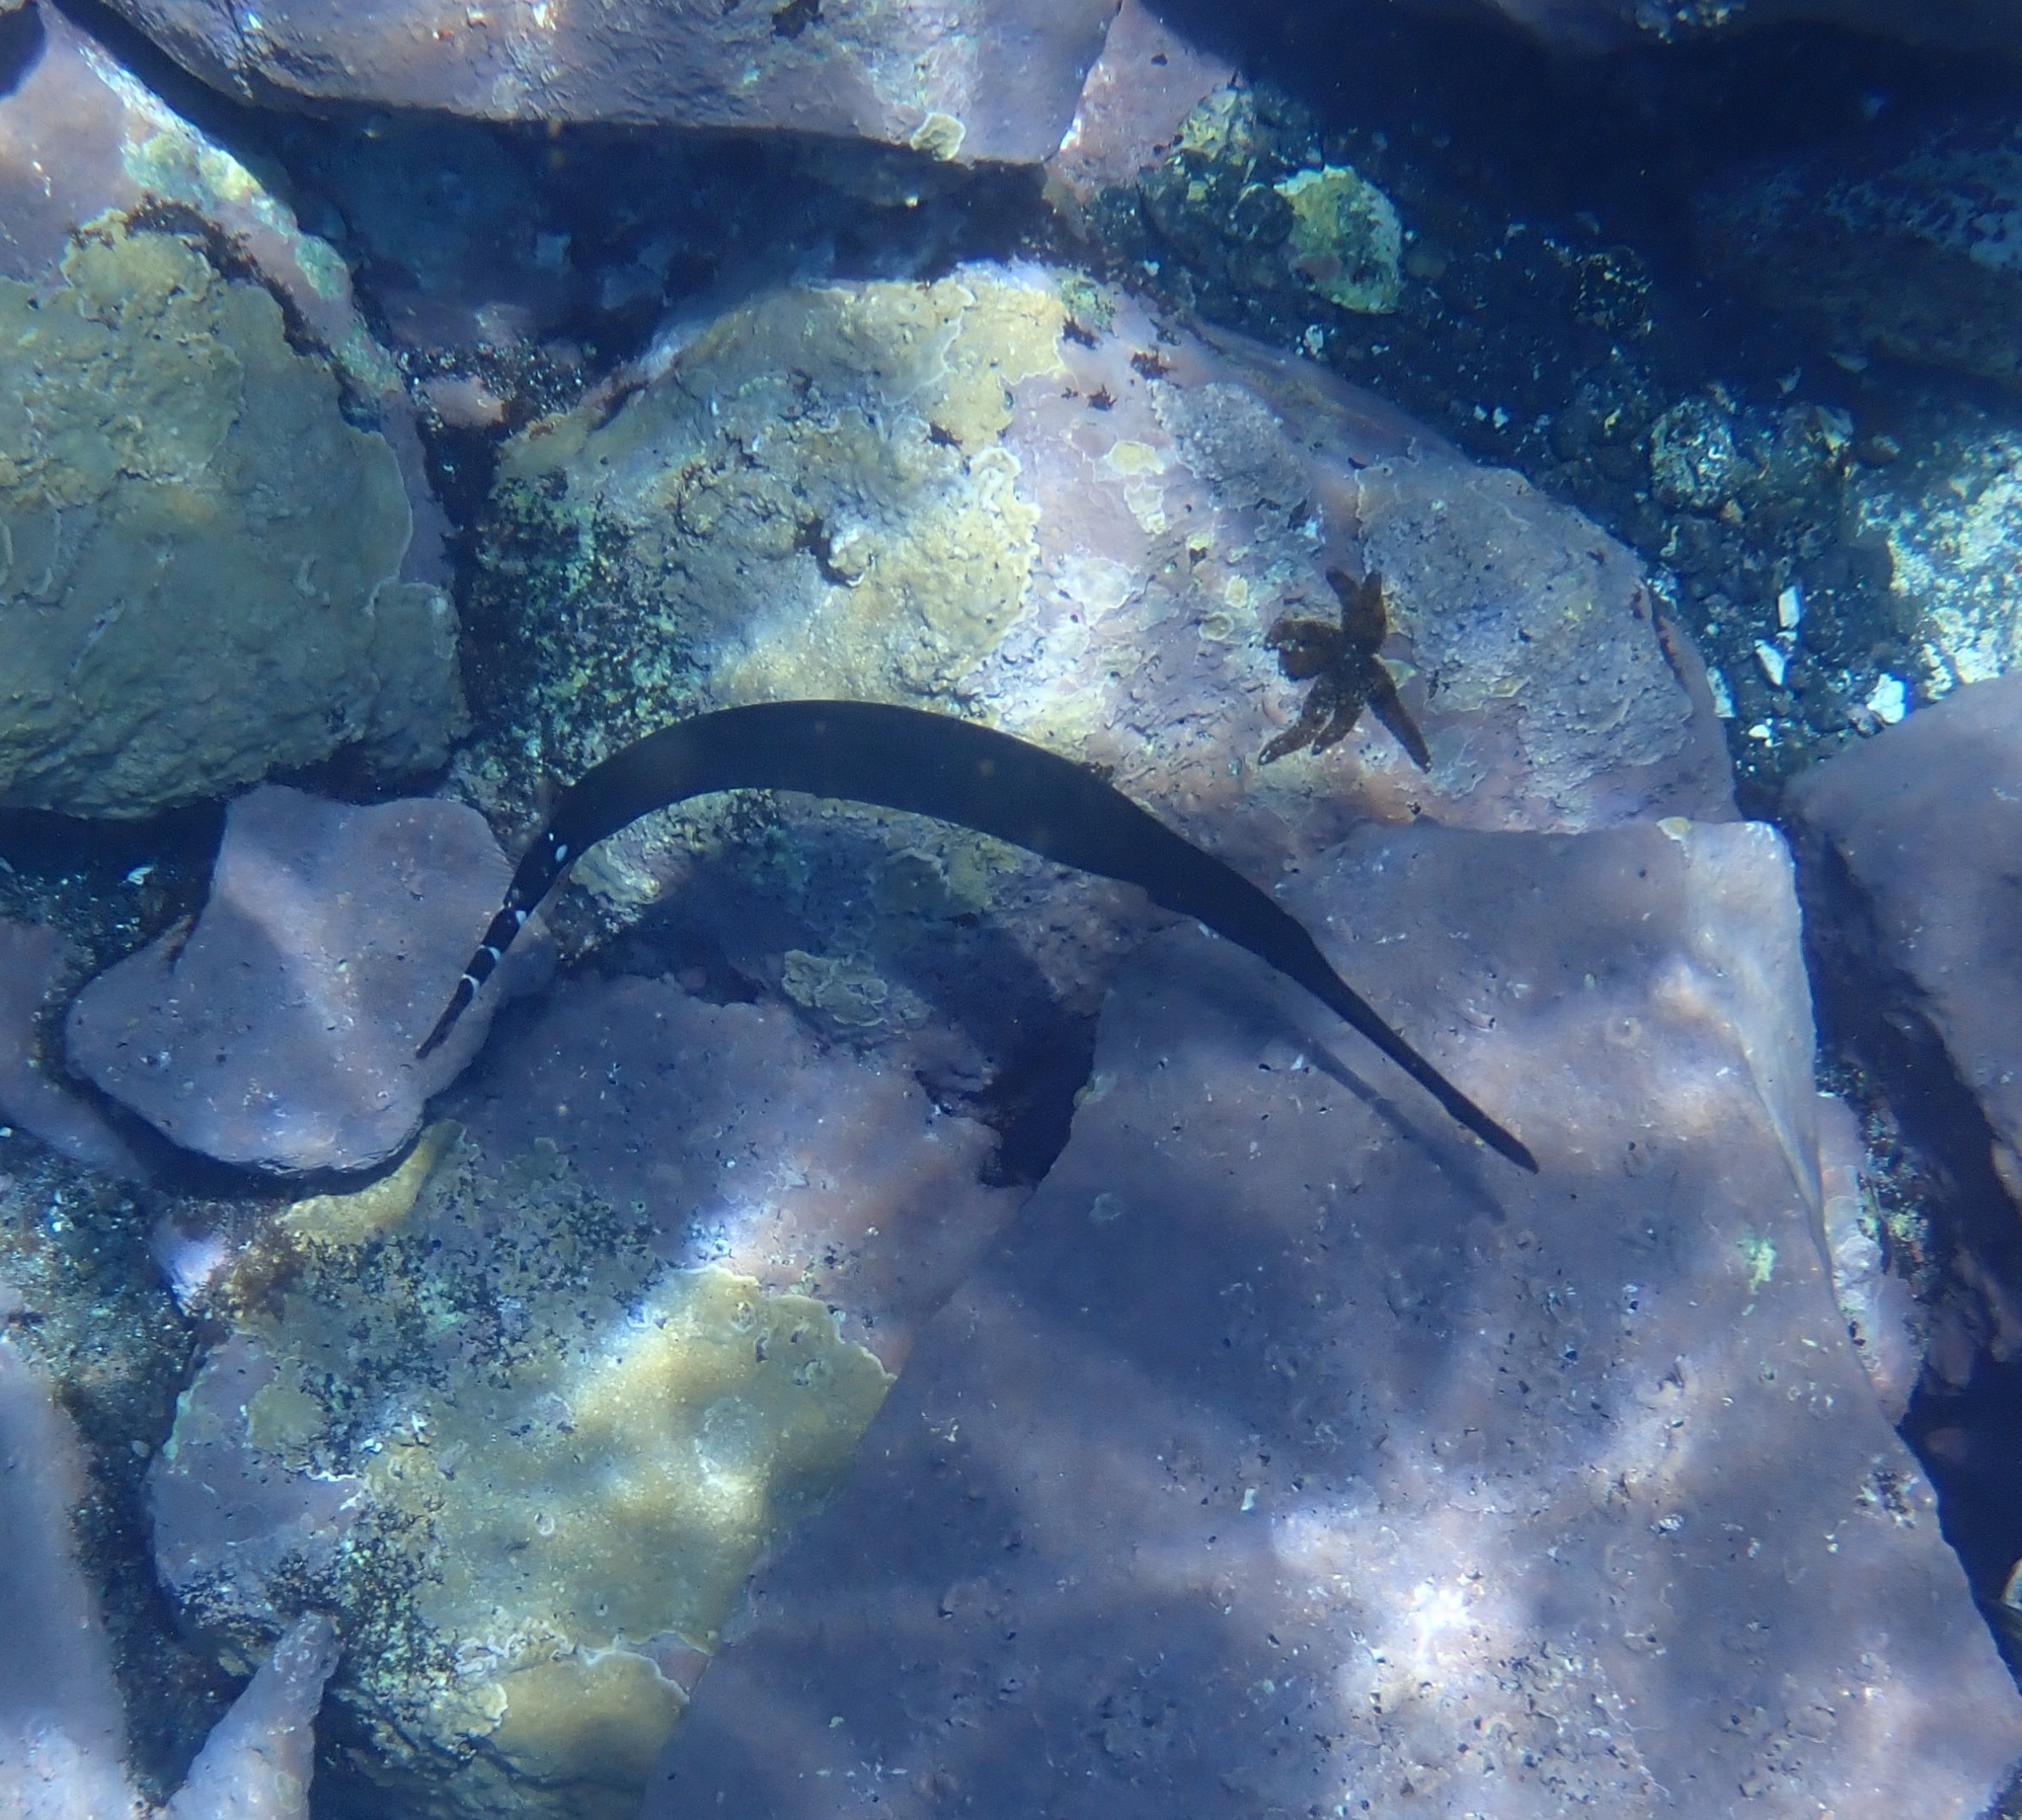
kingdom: Animalia
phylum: Chordata
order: Syngnathiformes
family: Aulostomidae
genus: Aulostomus
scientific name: Aulostomus strigosus
